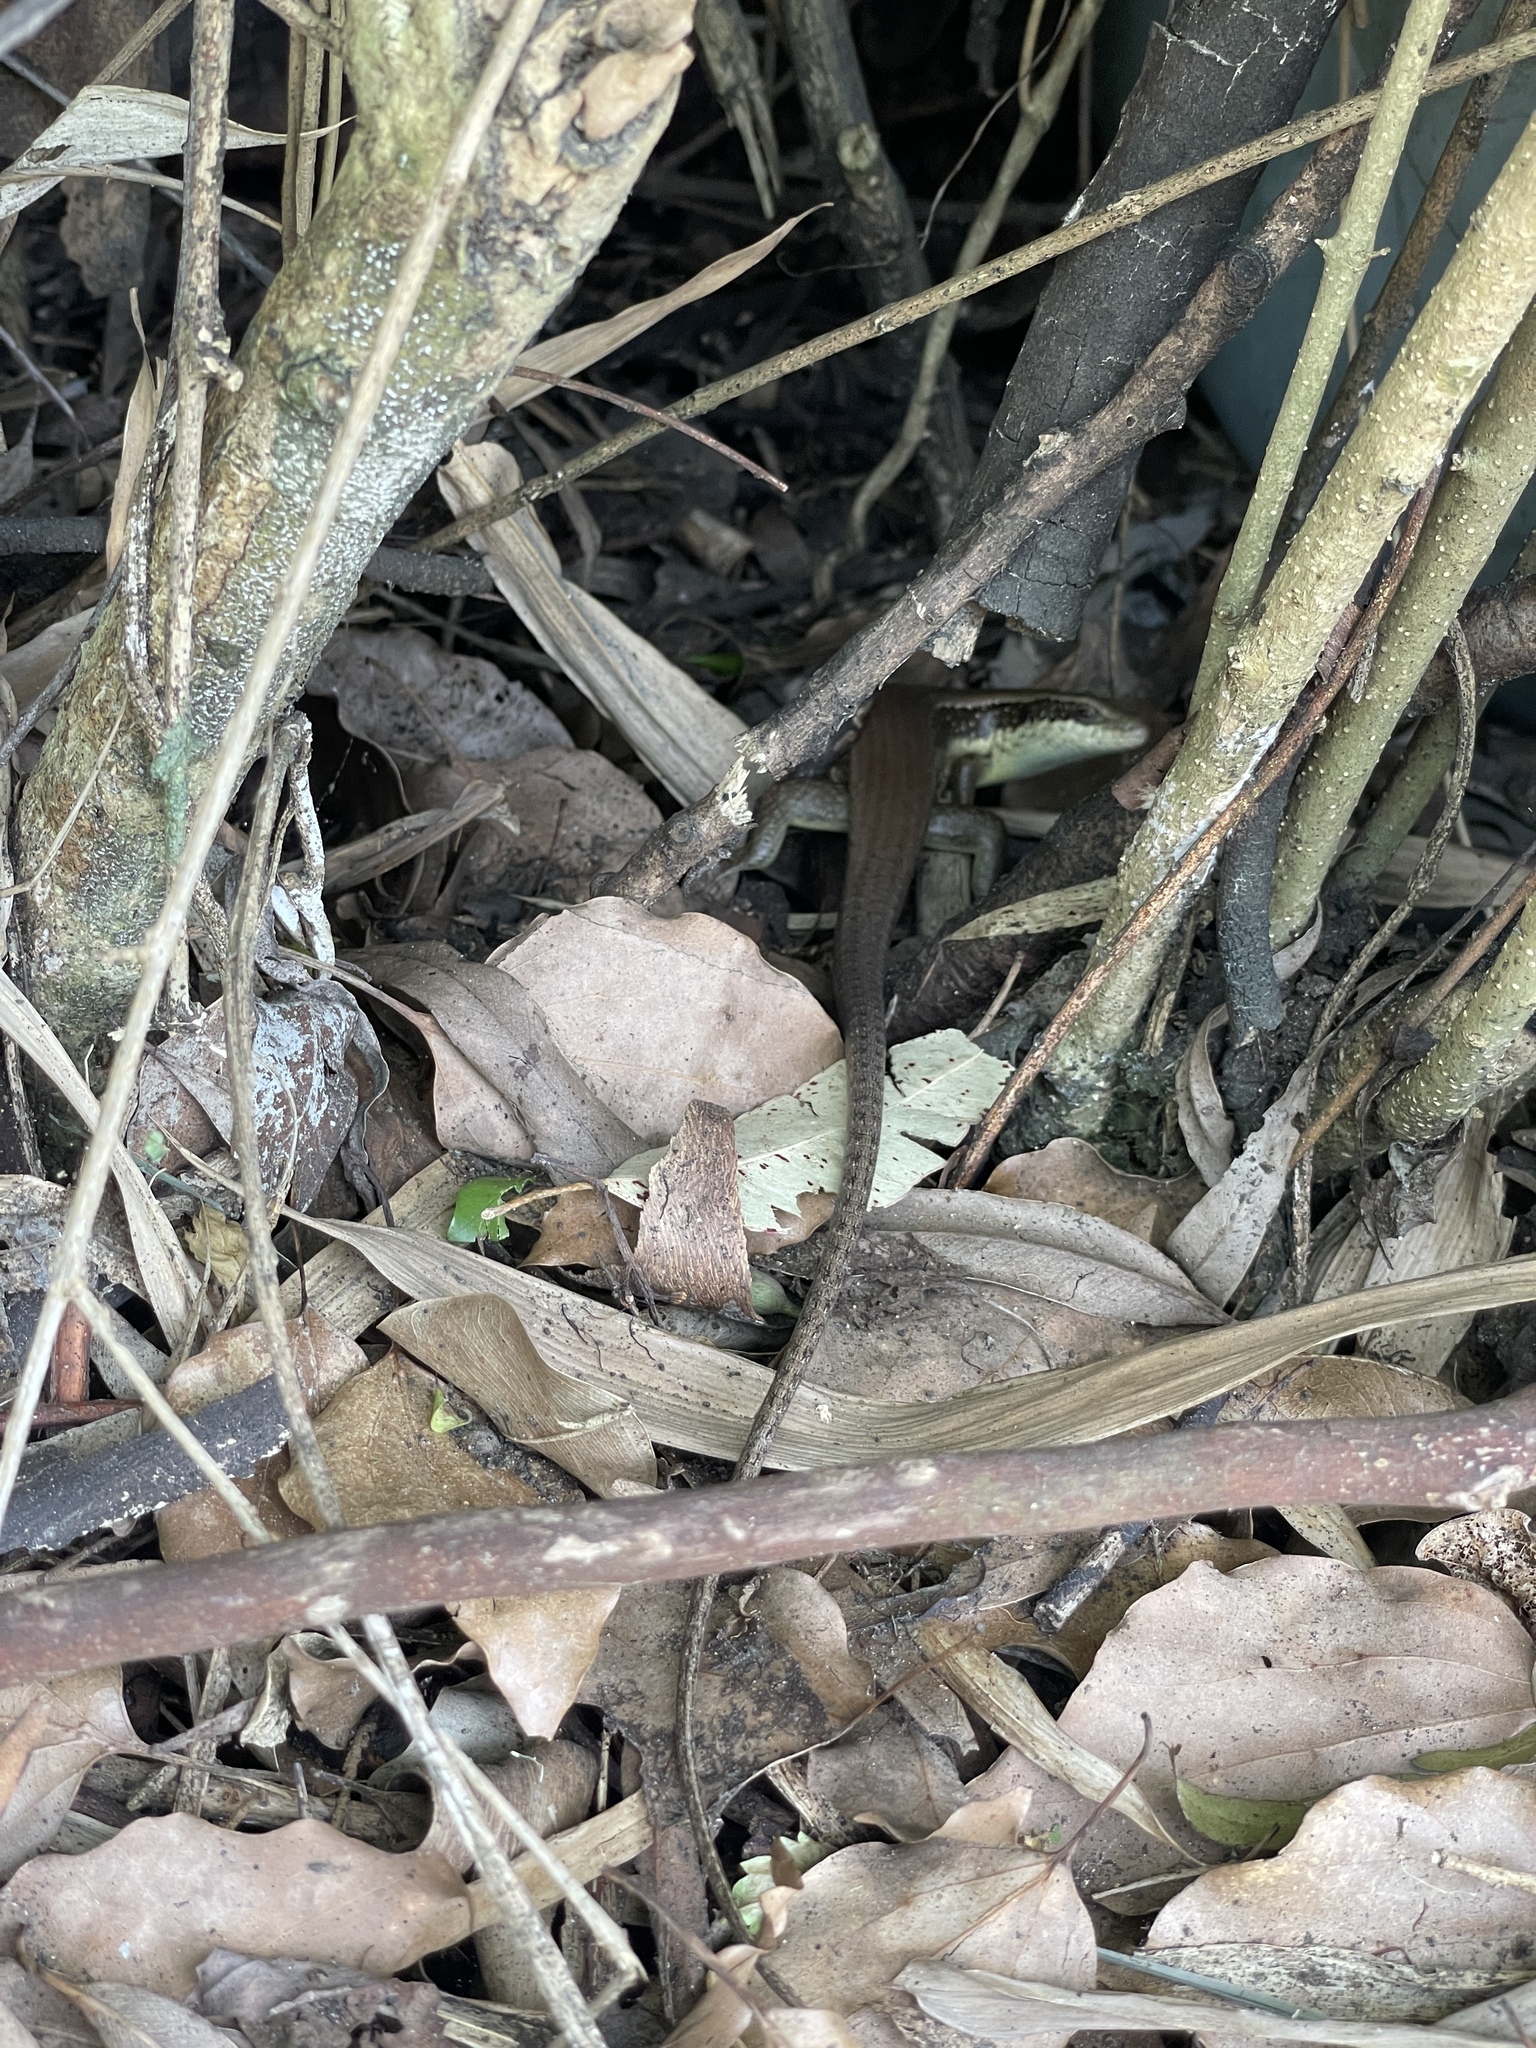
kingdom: Animalia
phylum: Chordata
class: Squamata
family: Scincidae
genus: Eutropis
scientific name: Eutropis longicaudata
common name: Long-tailed sun skink
